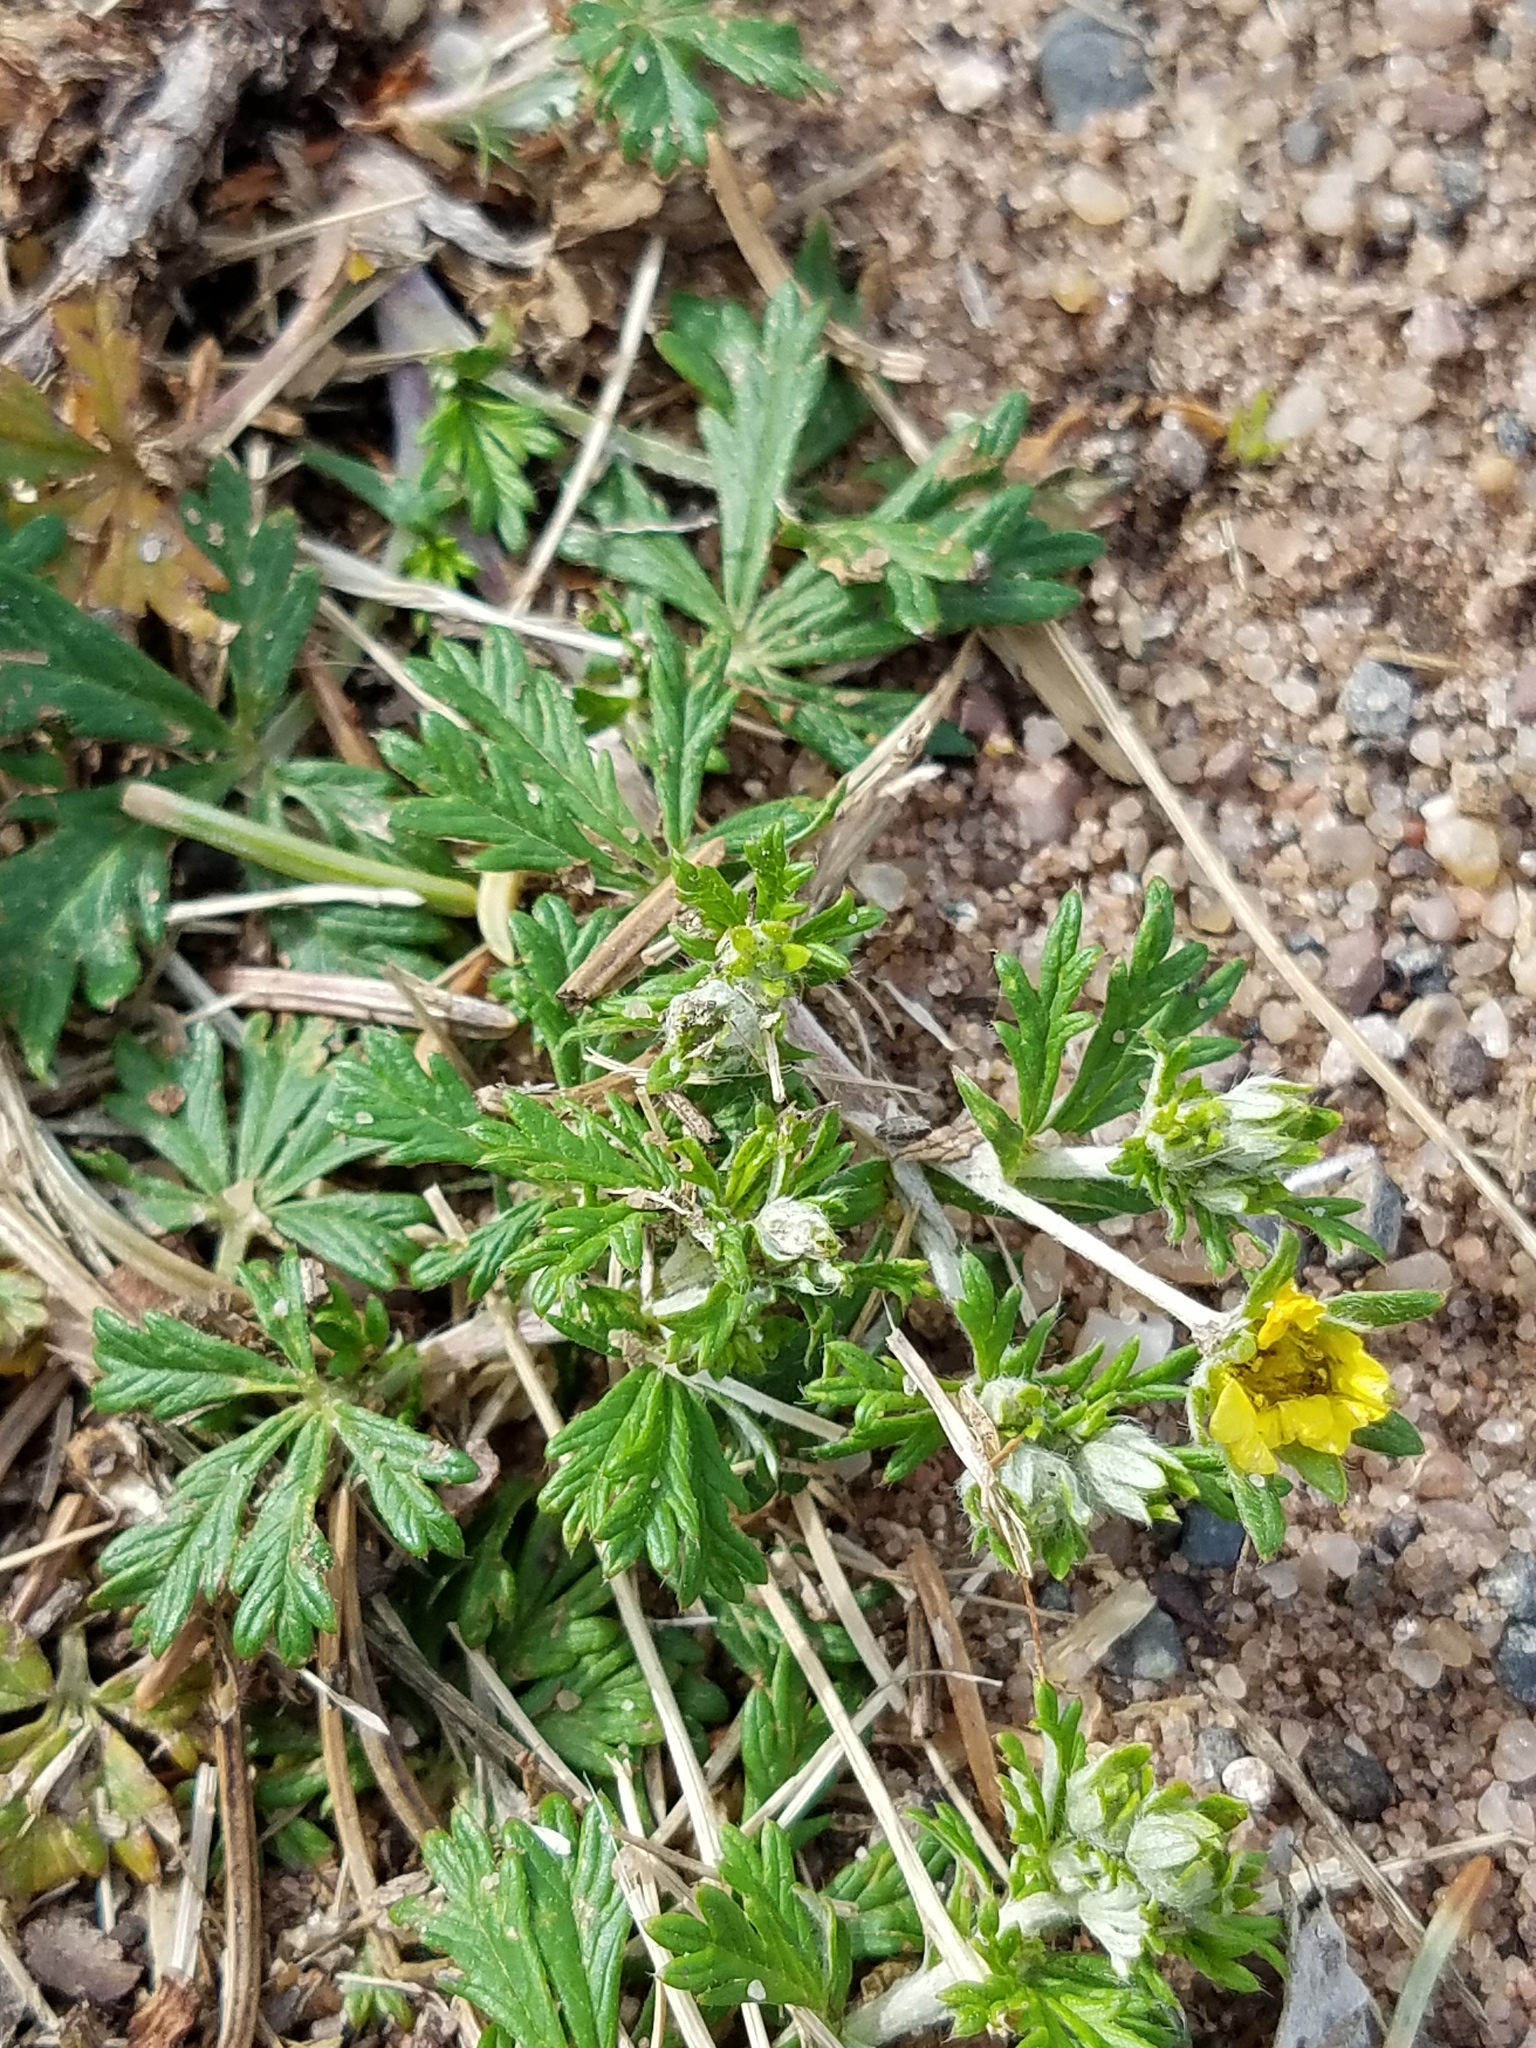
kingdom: Plantae
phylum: Tracheophyta
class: Magnoliopsida
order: Rosales
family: Rosaceae
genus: Potentilla
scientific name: Potentilla argentea
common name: Hoary cinquefoil
